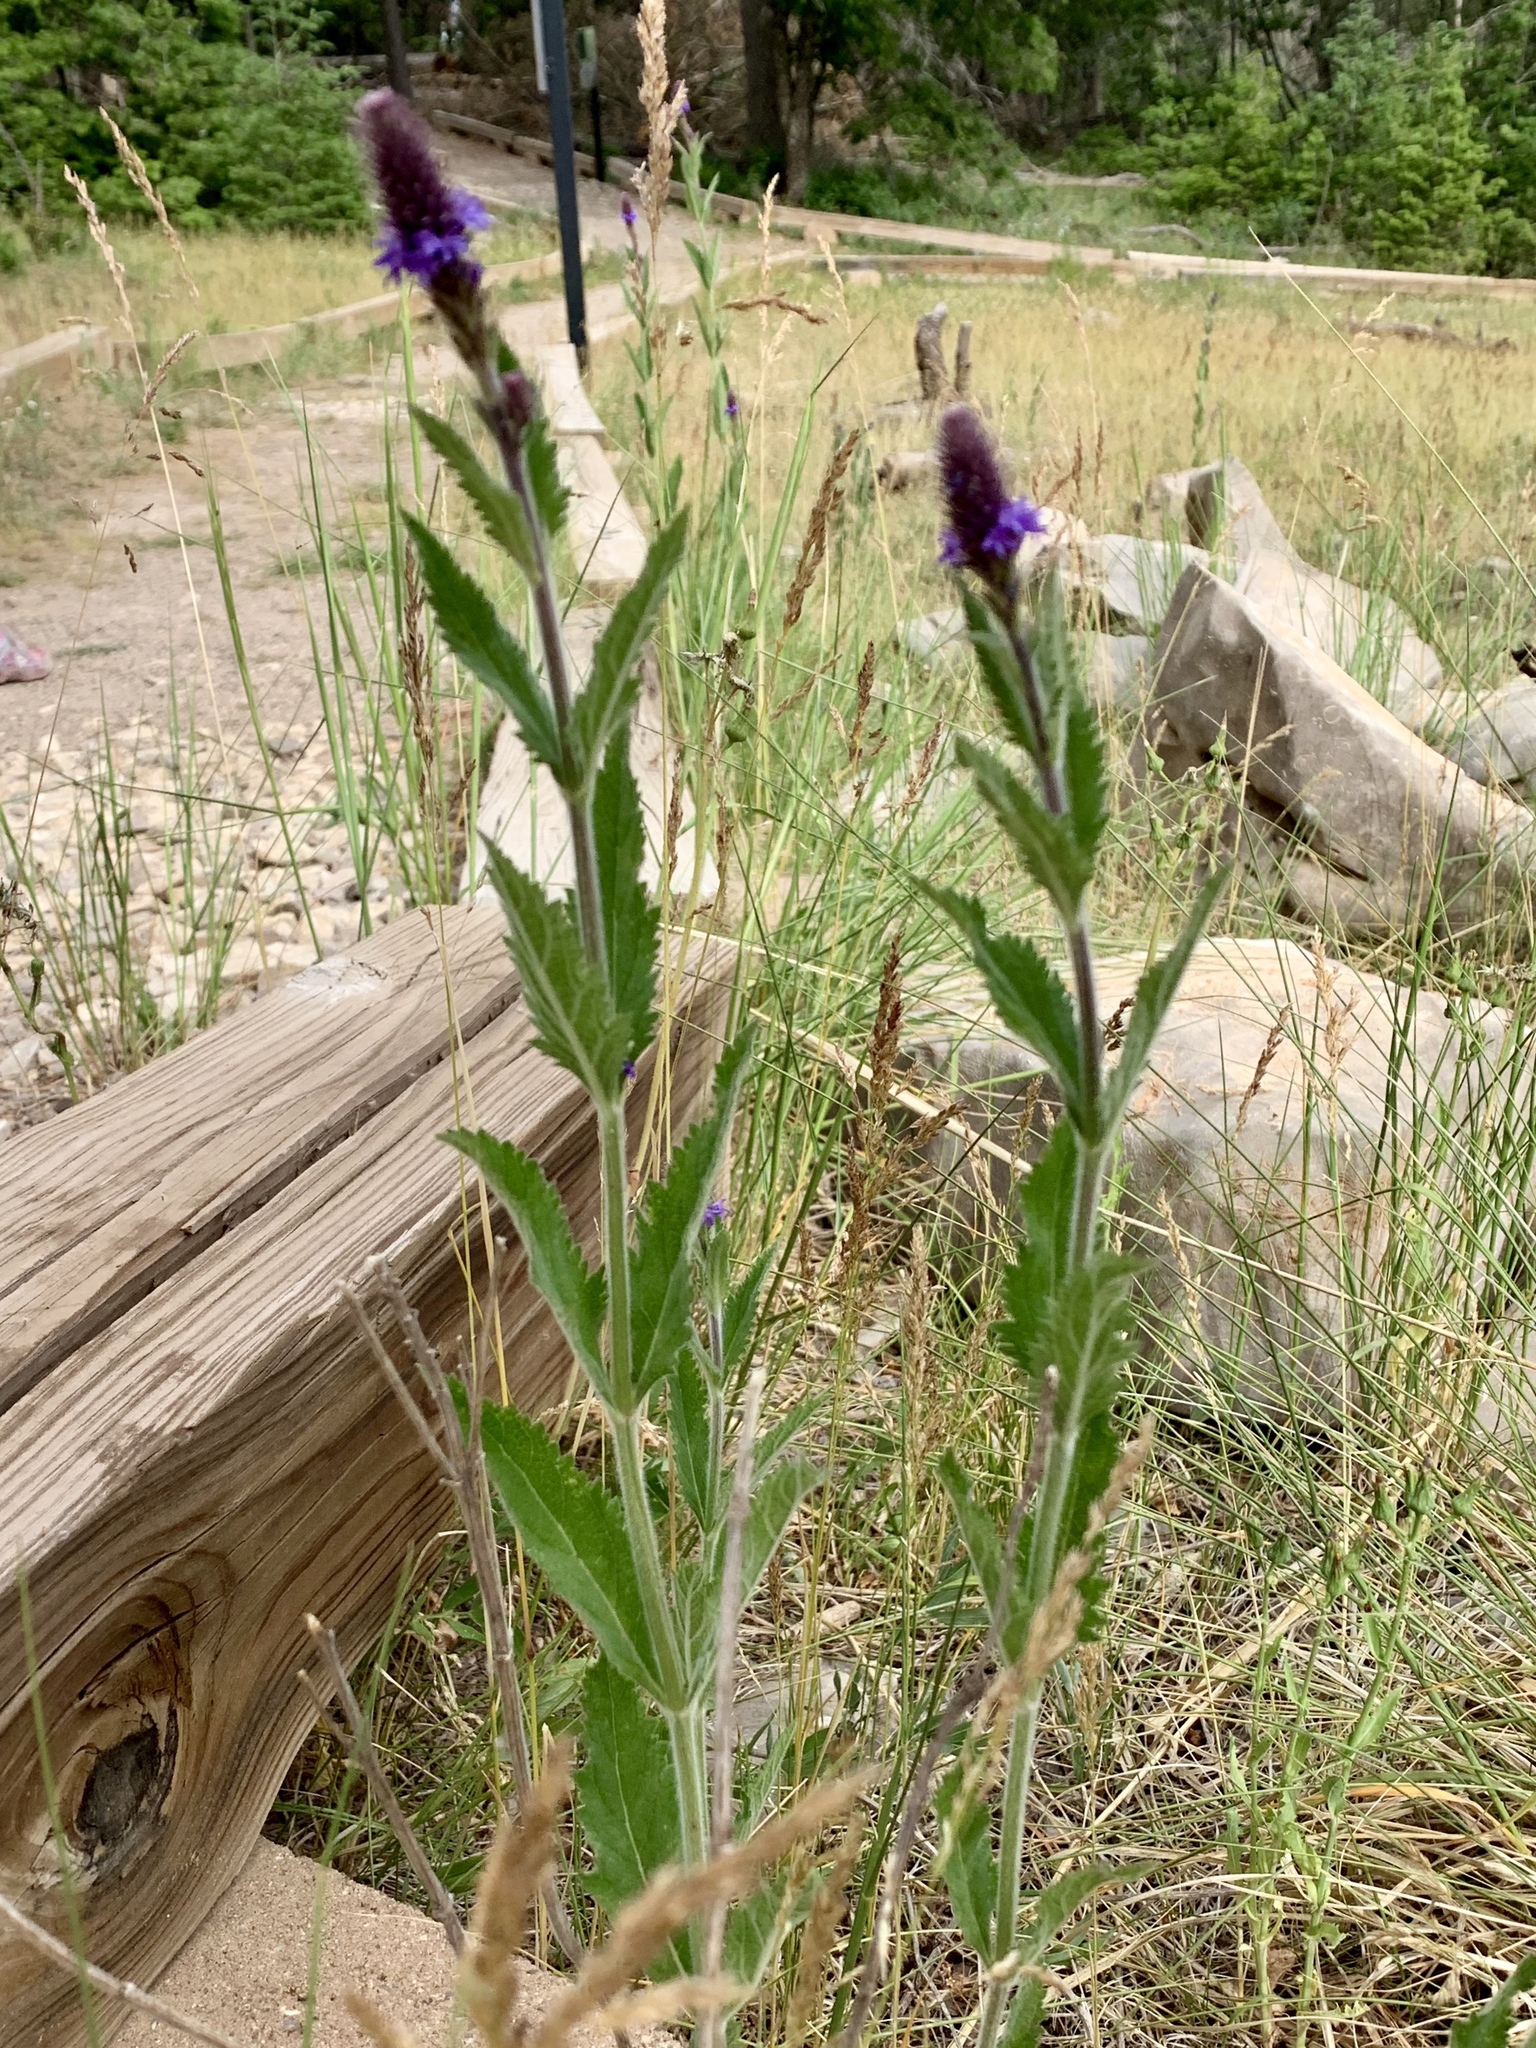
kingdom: Plantae
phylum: Tracheophyta
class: Magnoliopsida
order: Lamiales
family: Verbenaceae
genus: Verbena
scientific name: Verbena macdougalii
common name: New mexico vervain
